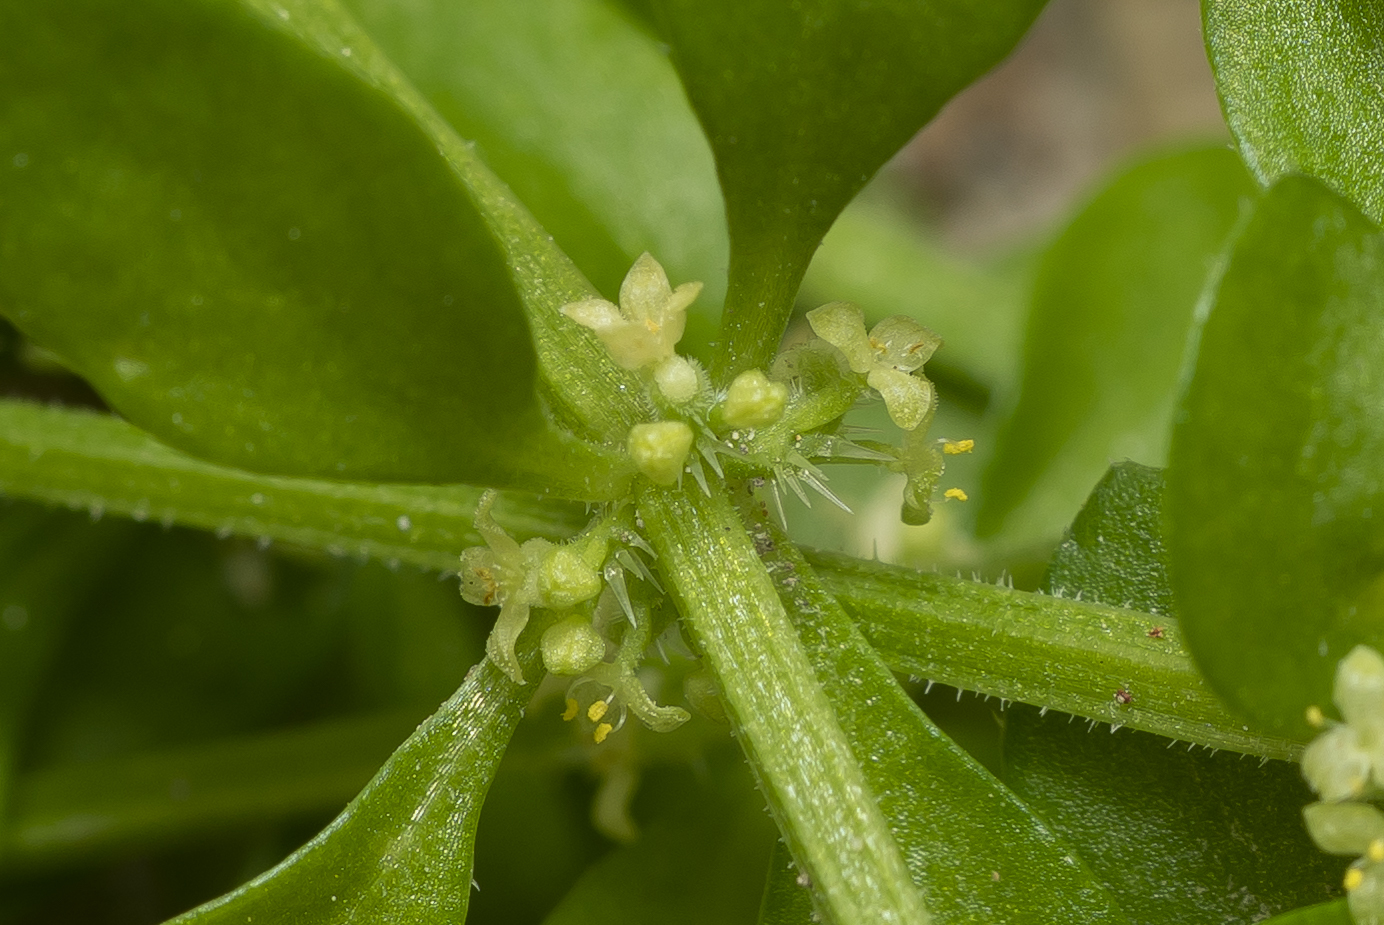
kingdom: Plantae
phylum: Tracheophyta
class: Magnoliopsida
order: Gentianales
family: Rubiaceae
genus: Valantia
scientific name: Valantia muralis
